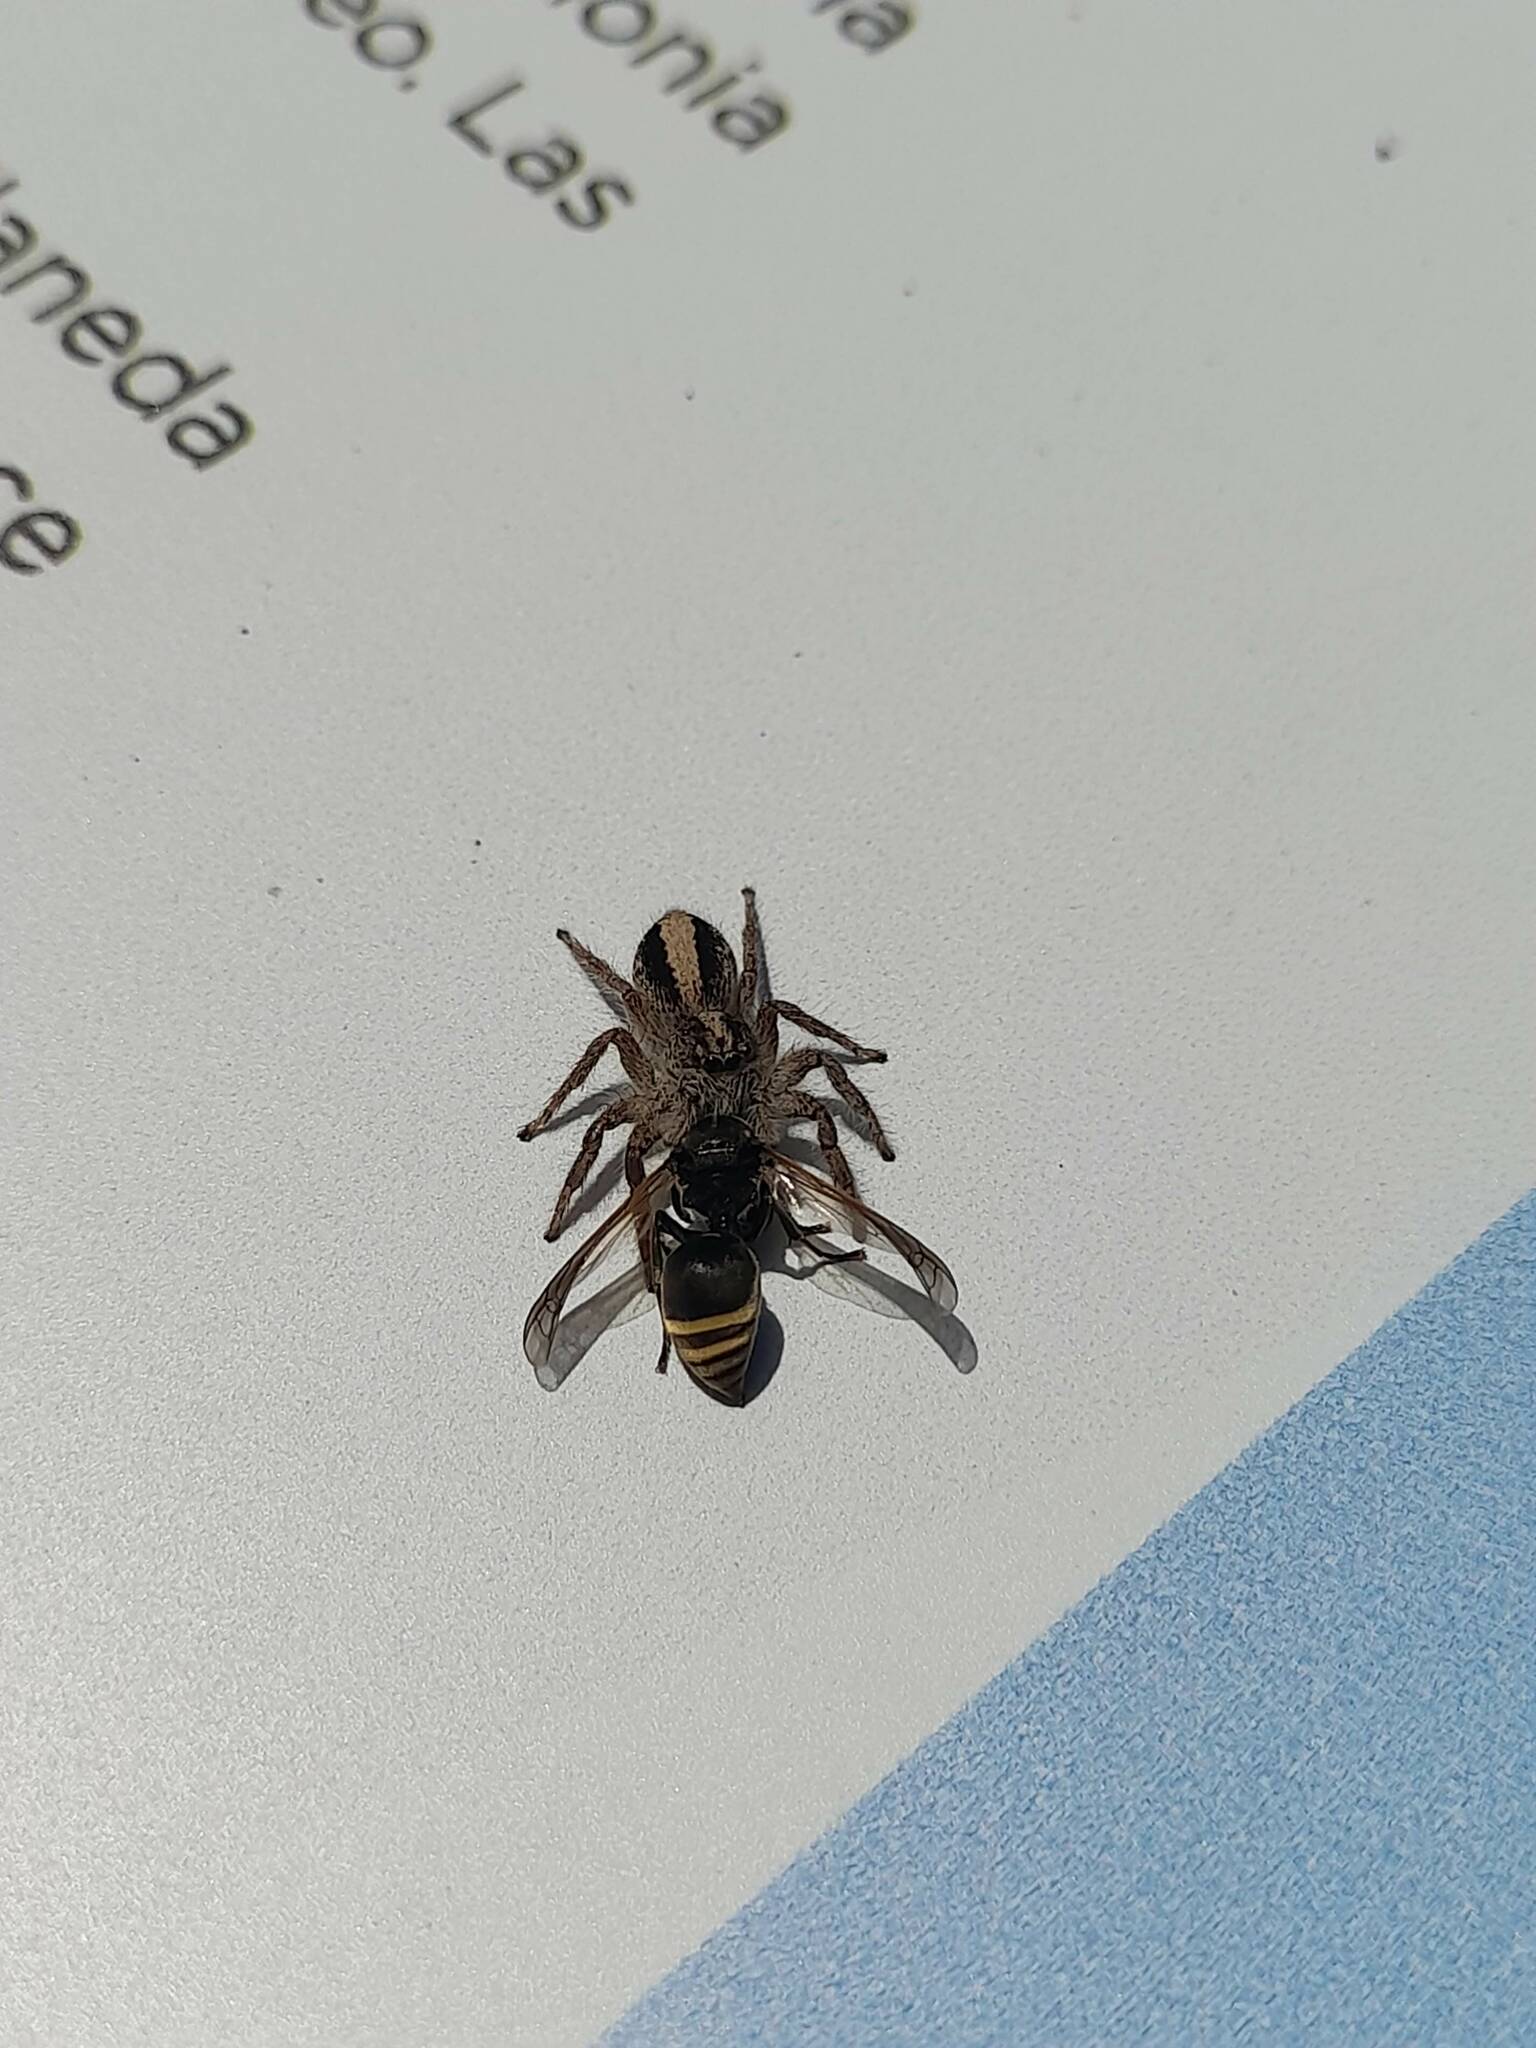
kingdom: Animalia
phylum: Arthropoda
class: Arachnida
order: Araneae
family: Salticidae
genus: Megafreya
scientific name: Megafreya sutrix
